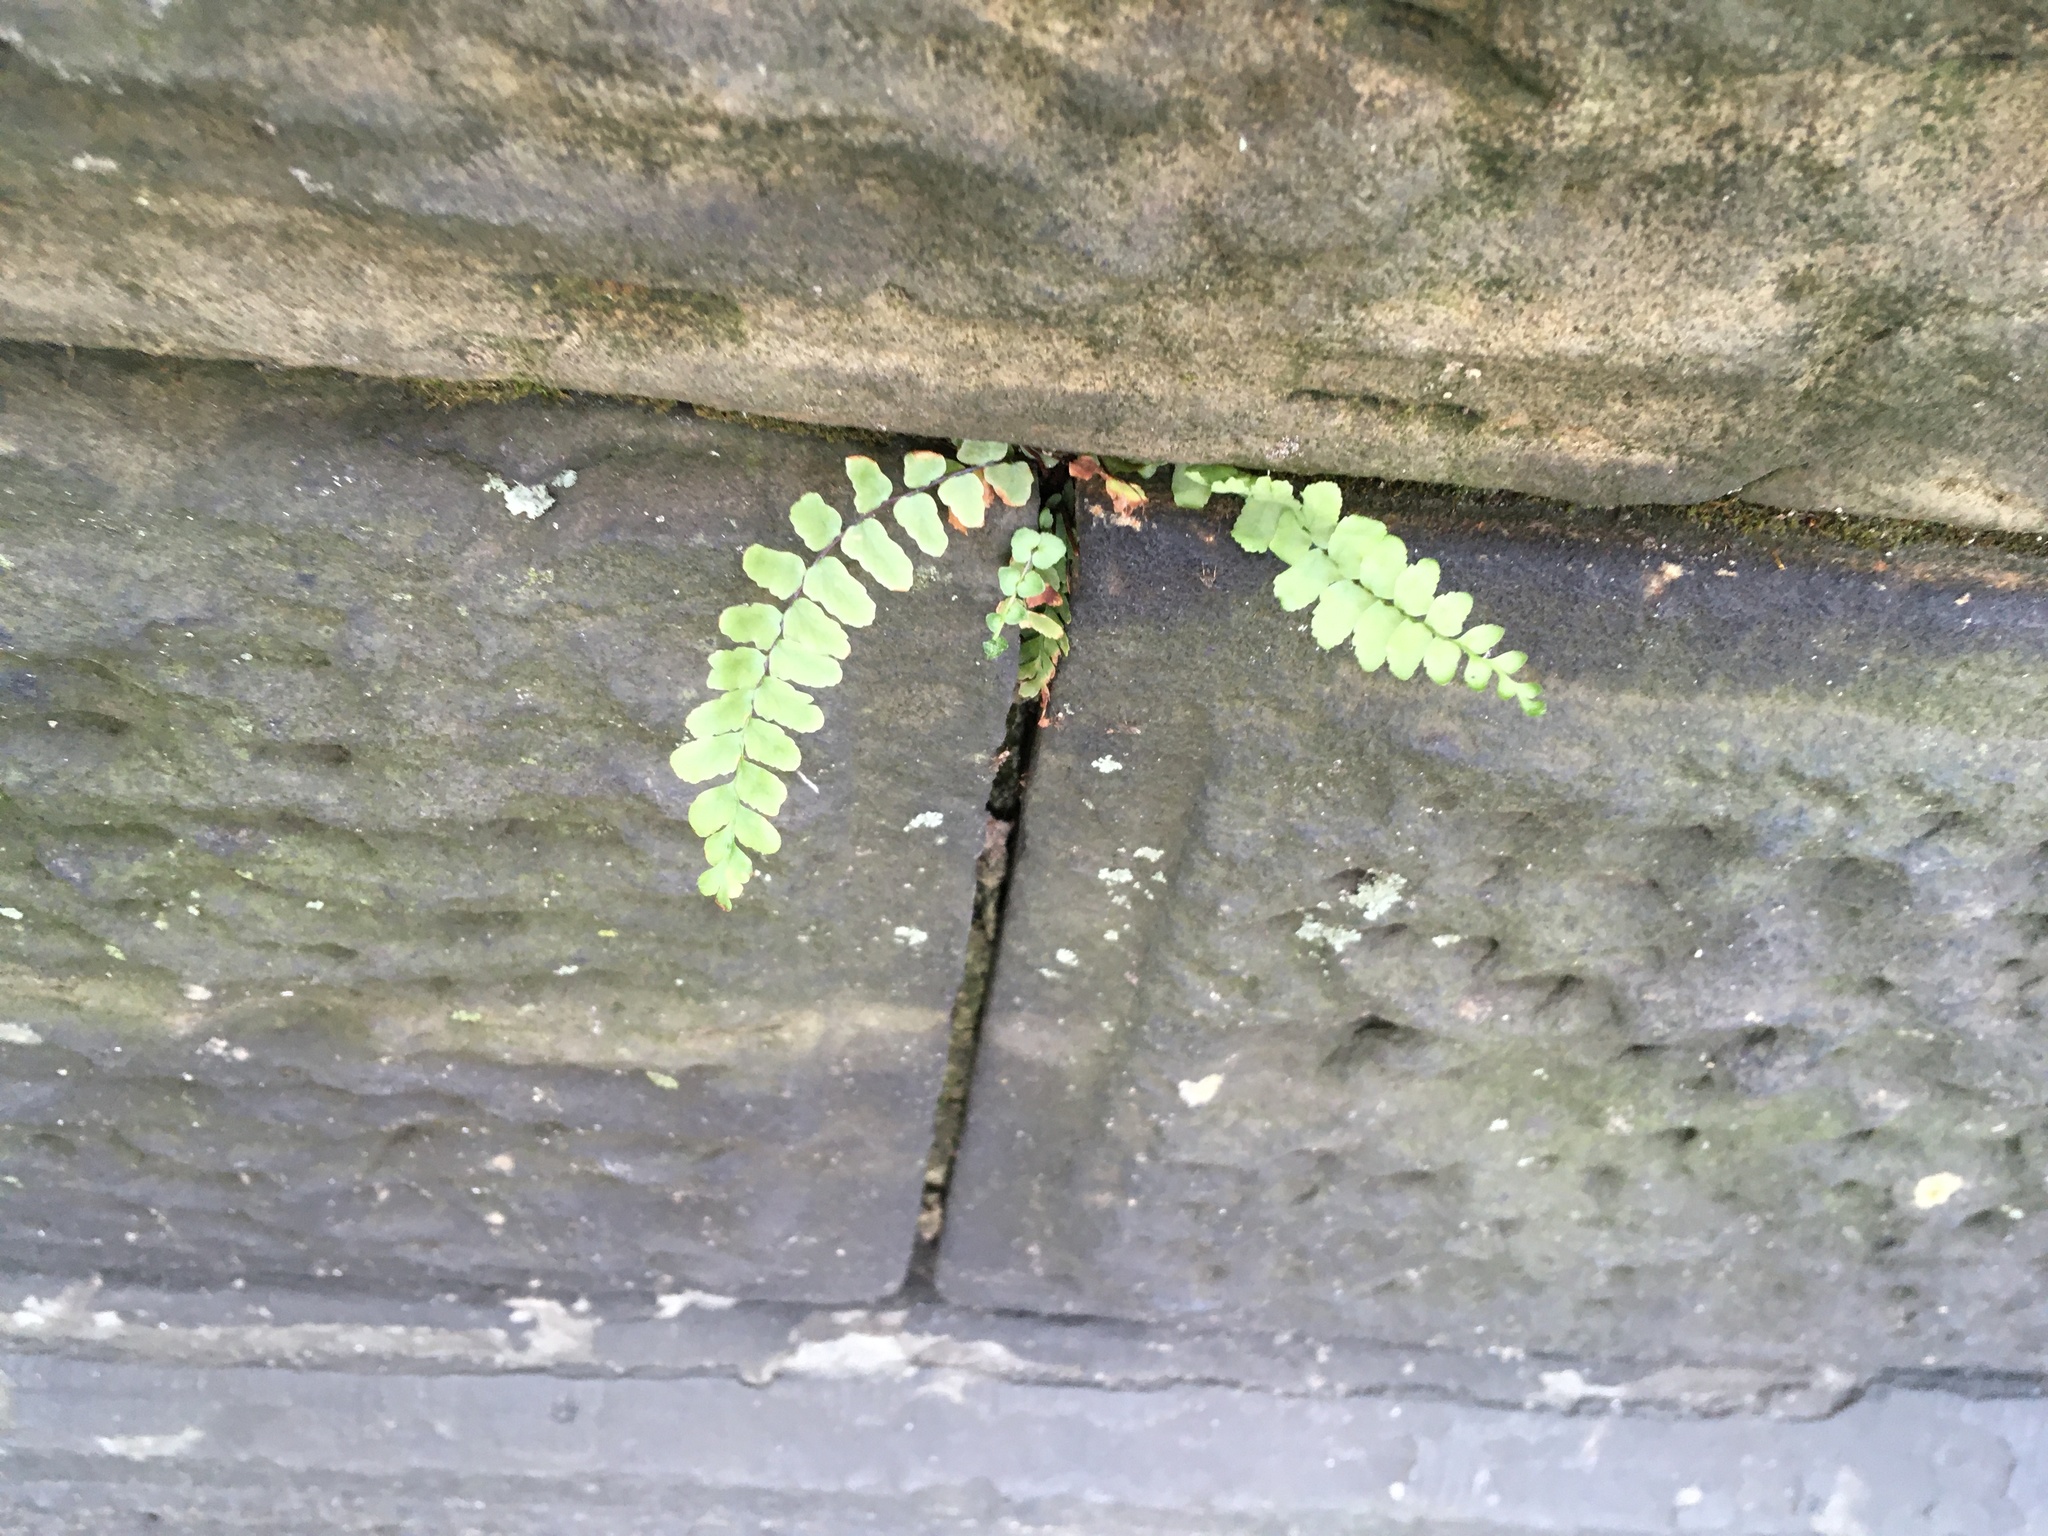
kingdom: Plantae
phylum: Tracheophyta
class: Polypodiopsida
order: Polypodiales
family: Aspleniaceae
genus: Asplenium
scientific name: Asplenium platyneuron
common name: Ebony spleenwort
